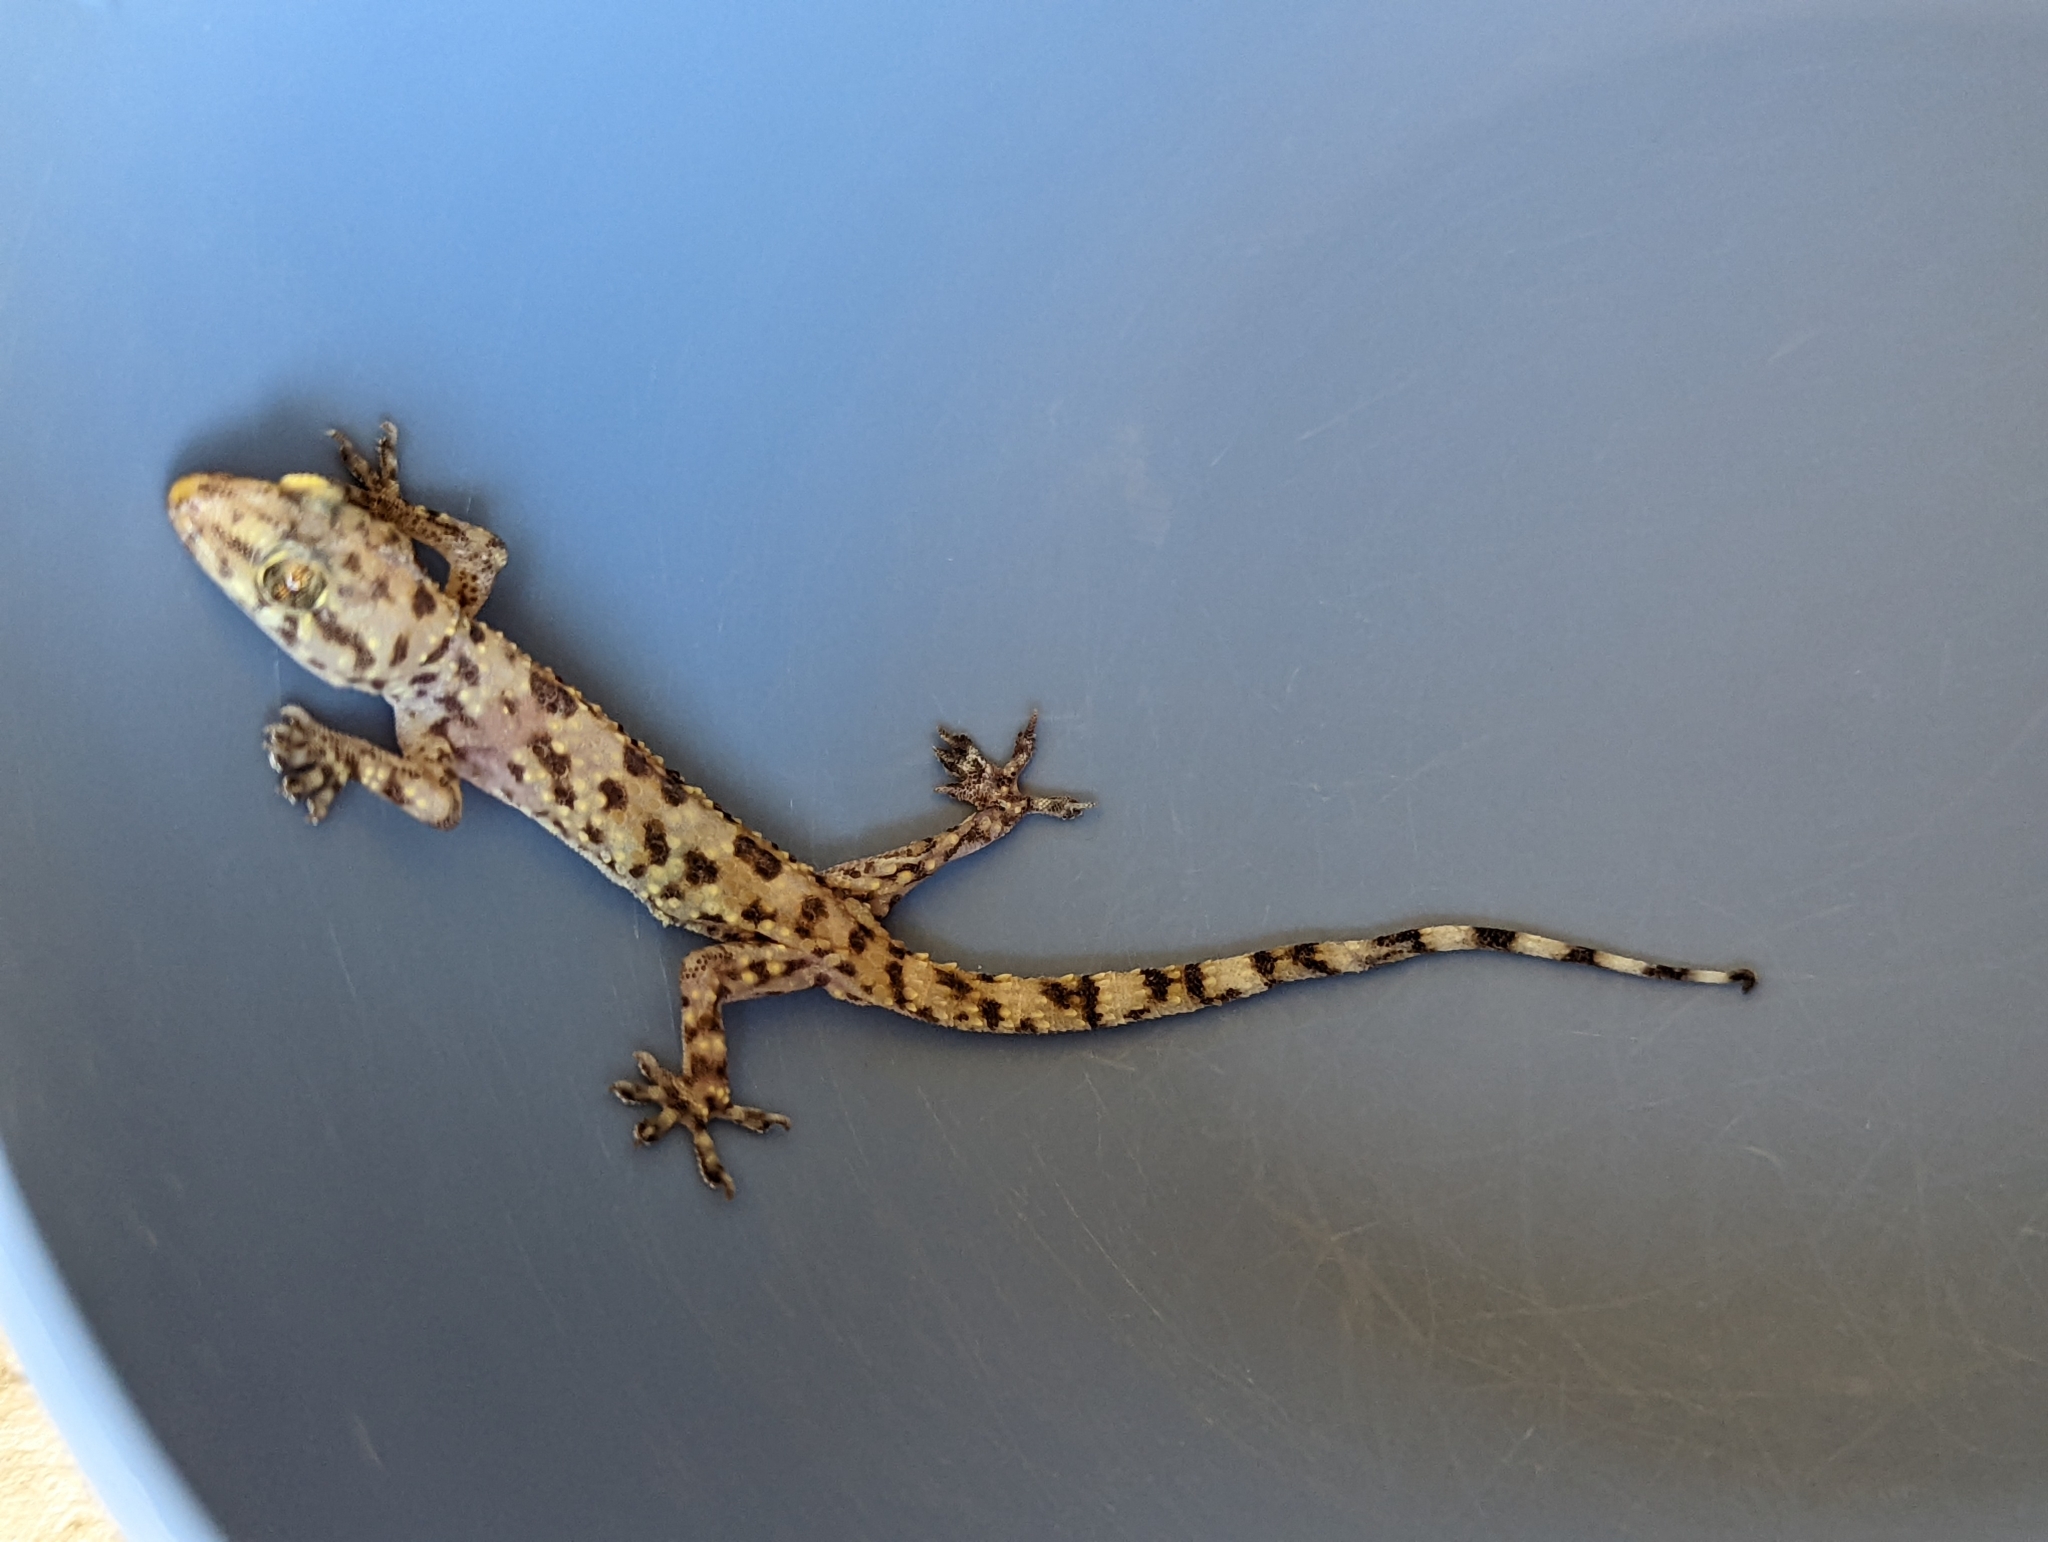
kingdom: Animalia
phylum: Chordata
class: Squamata
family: Gekkonidae
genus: Hemidactylus
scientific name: Hemidactylus turcicus
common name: Turkish gecko
